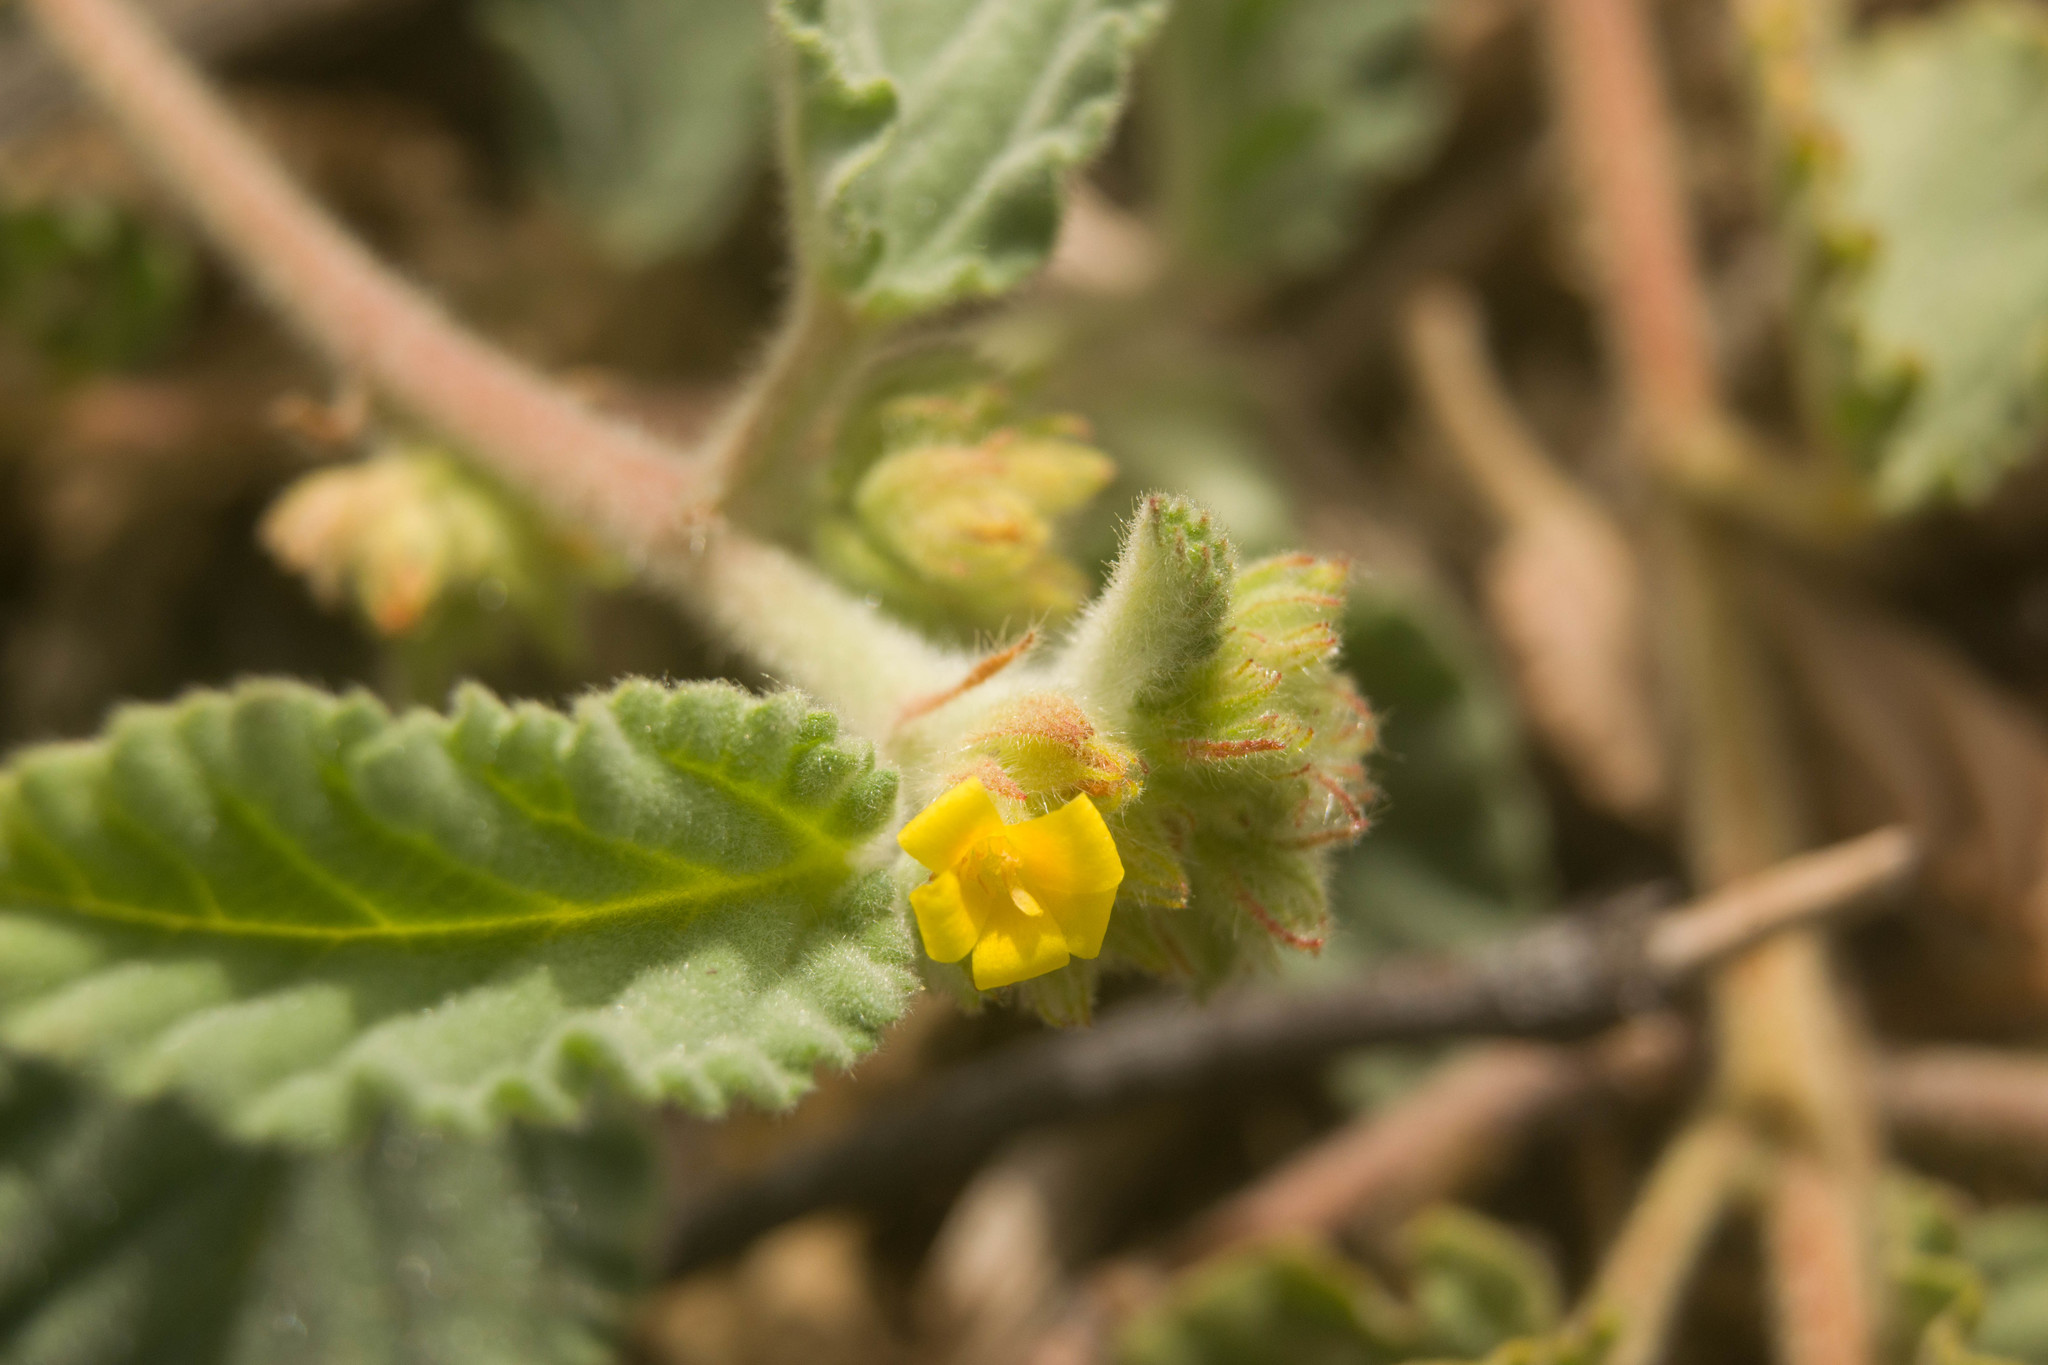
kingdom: Plantae
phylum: Tracheophyta
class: Magnoliopsida
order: Malvales
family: Malvaceae
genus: Waltheria
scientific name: Waltheria indica
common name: Leather-coat
